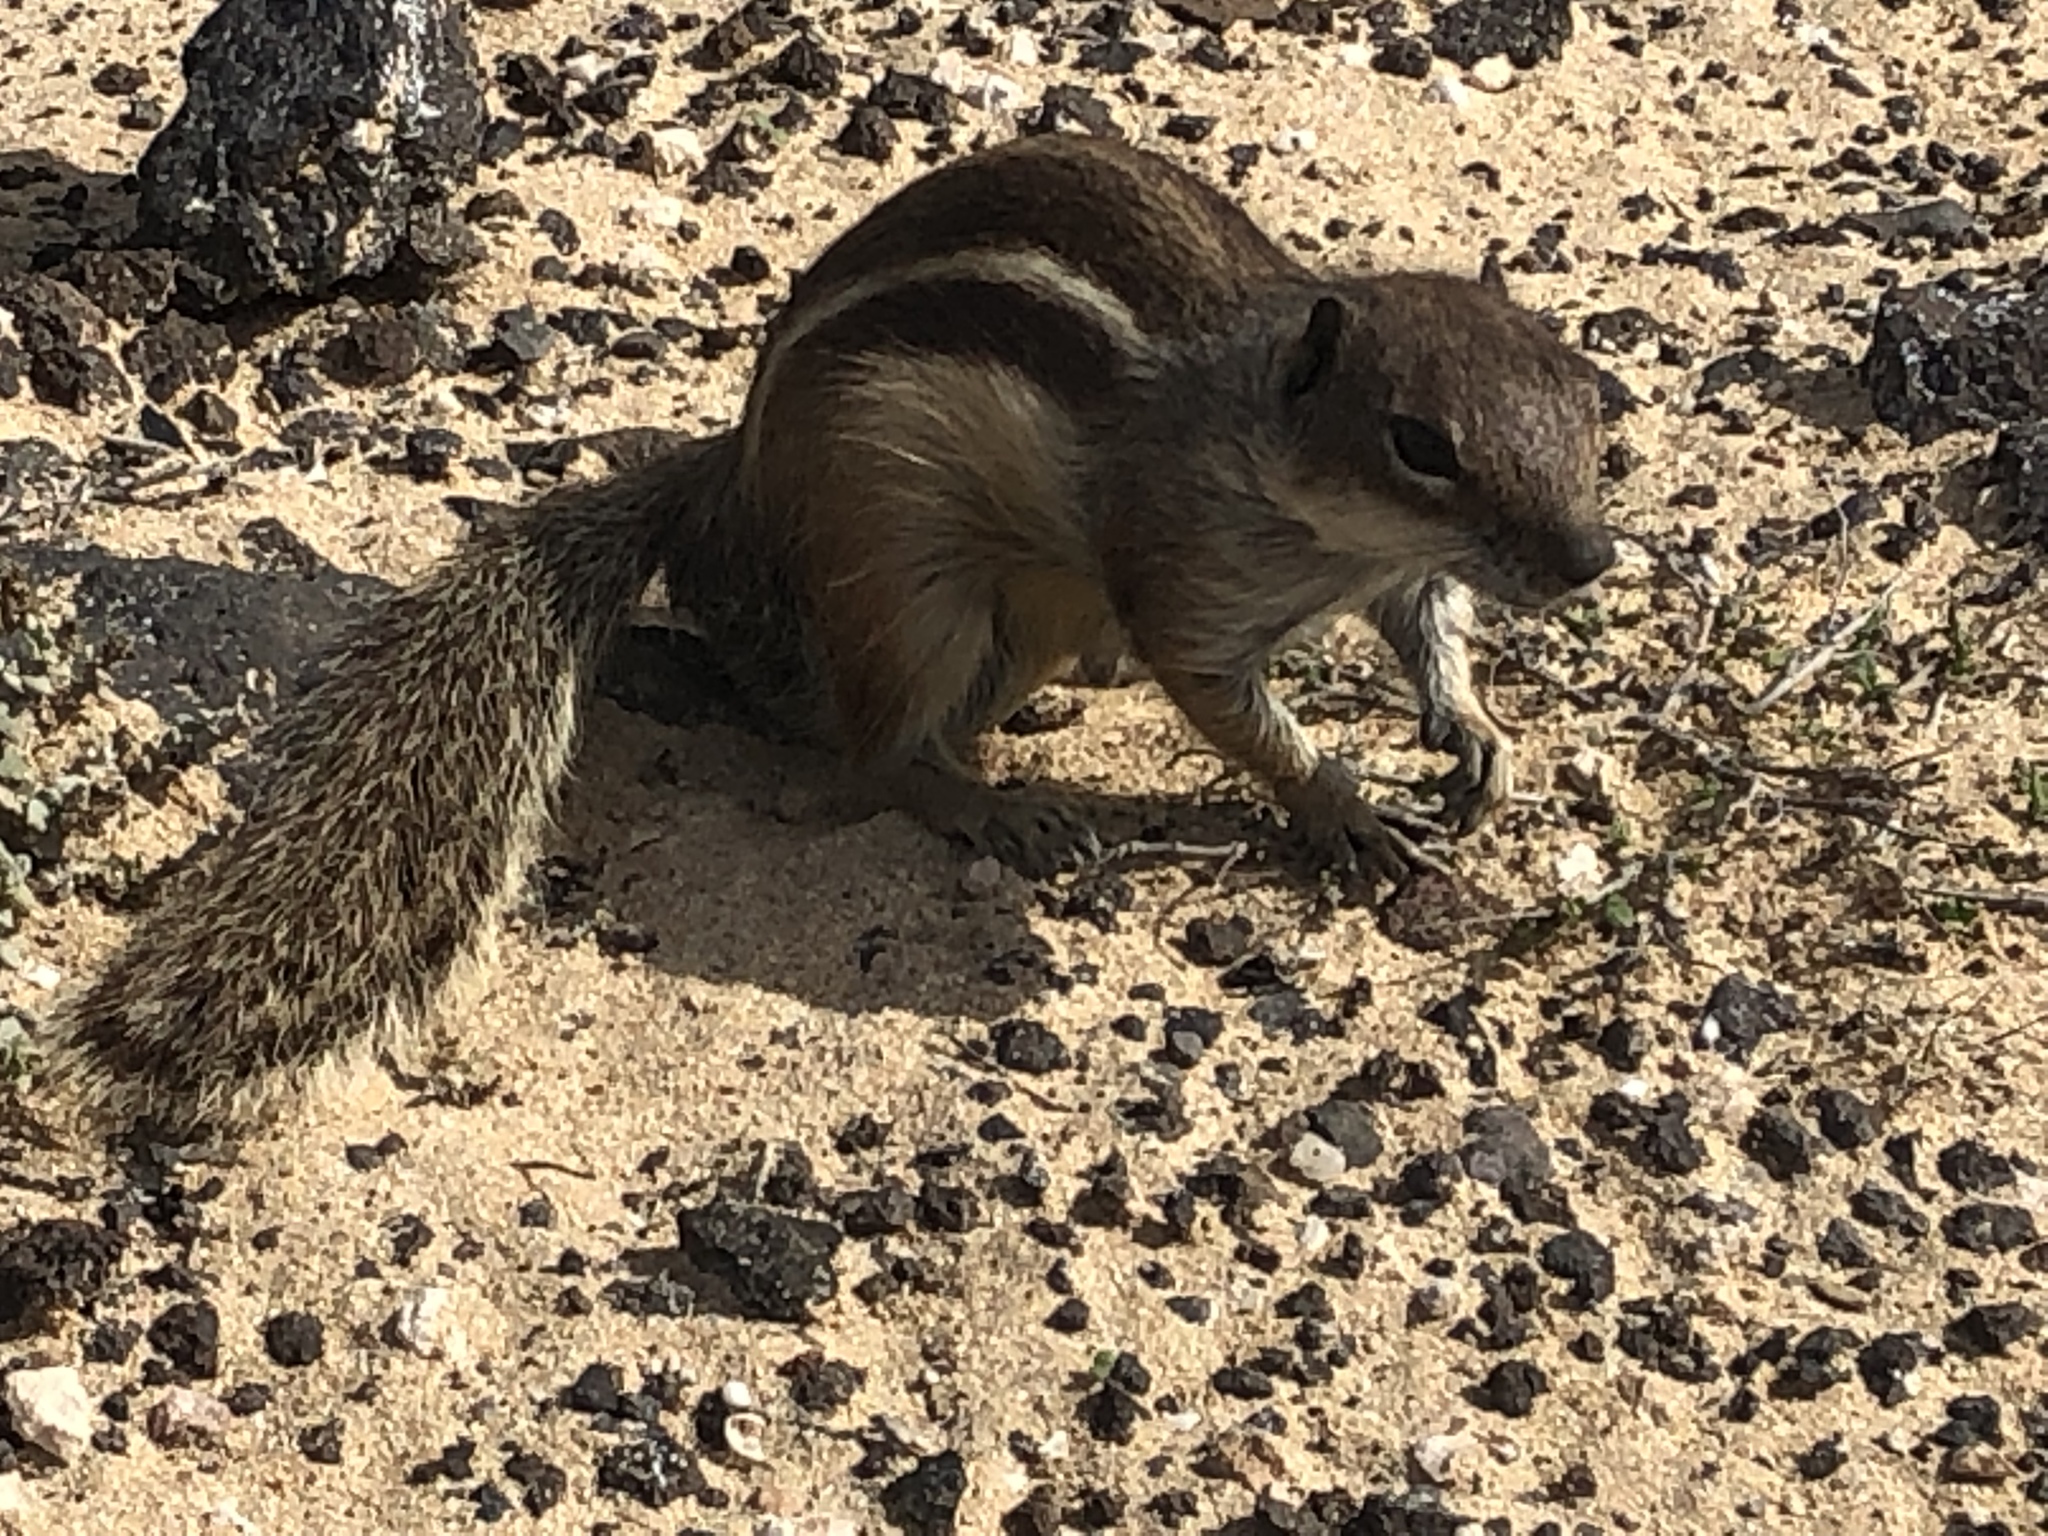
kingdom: Animalia
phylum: Chordata
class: Mammalia
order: Rodentia
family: Sciuridae
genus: Atlantoxerus
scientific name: Atlantoxerus getulus
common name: Barbary ground squirrel
